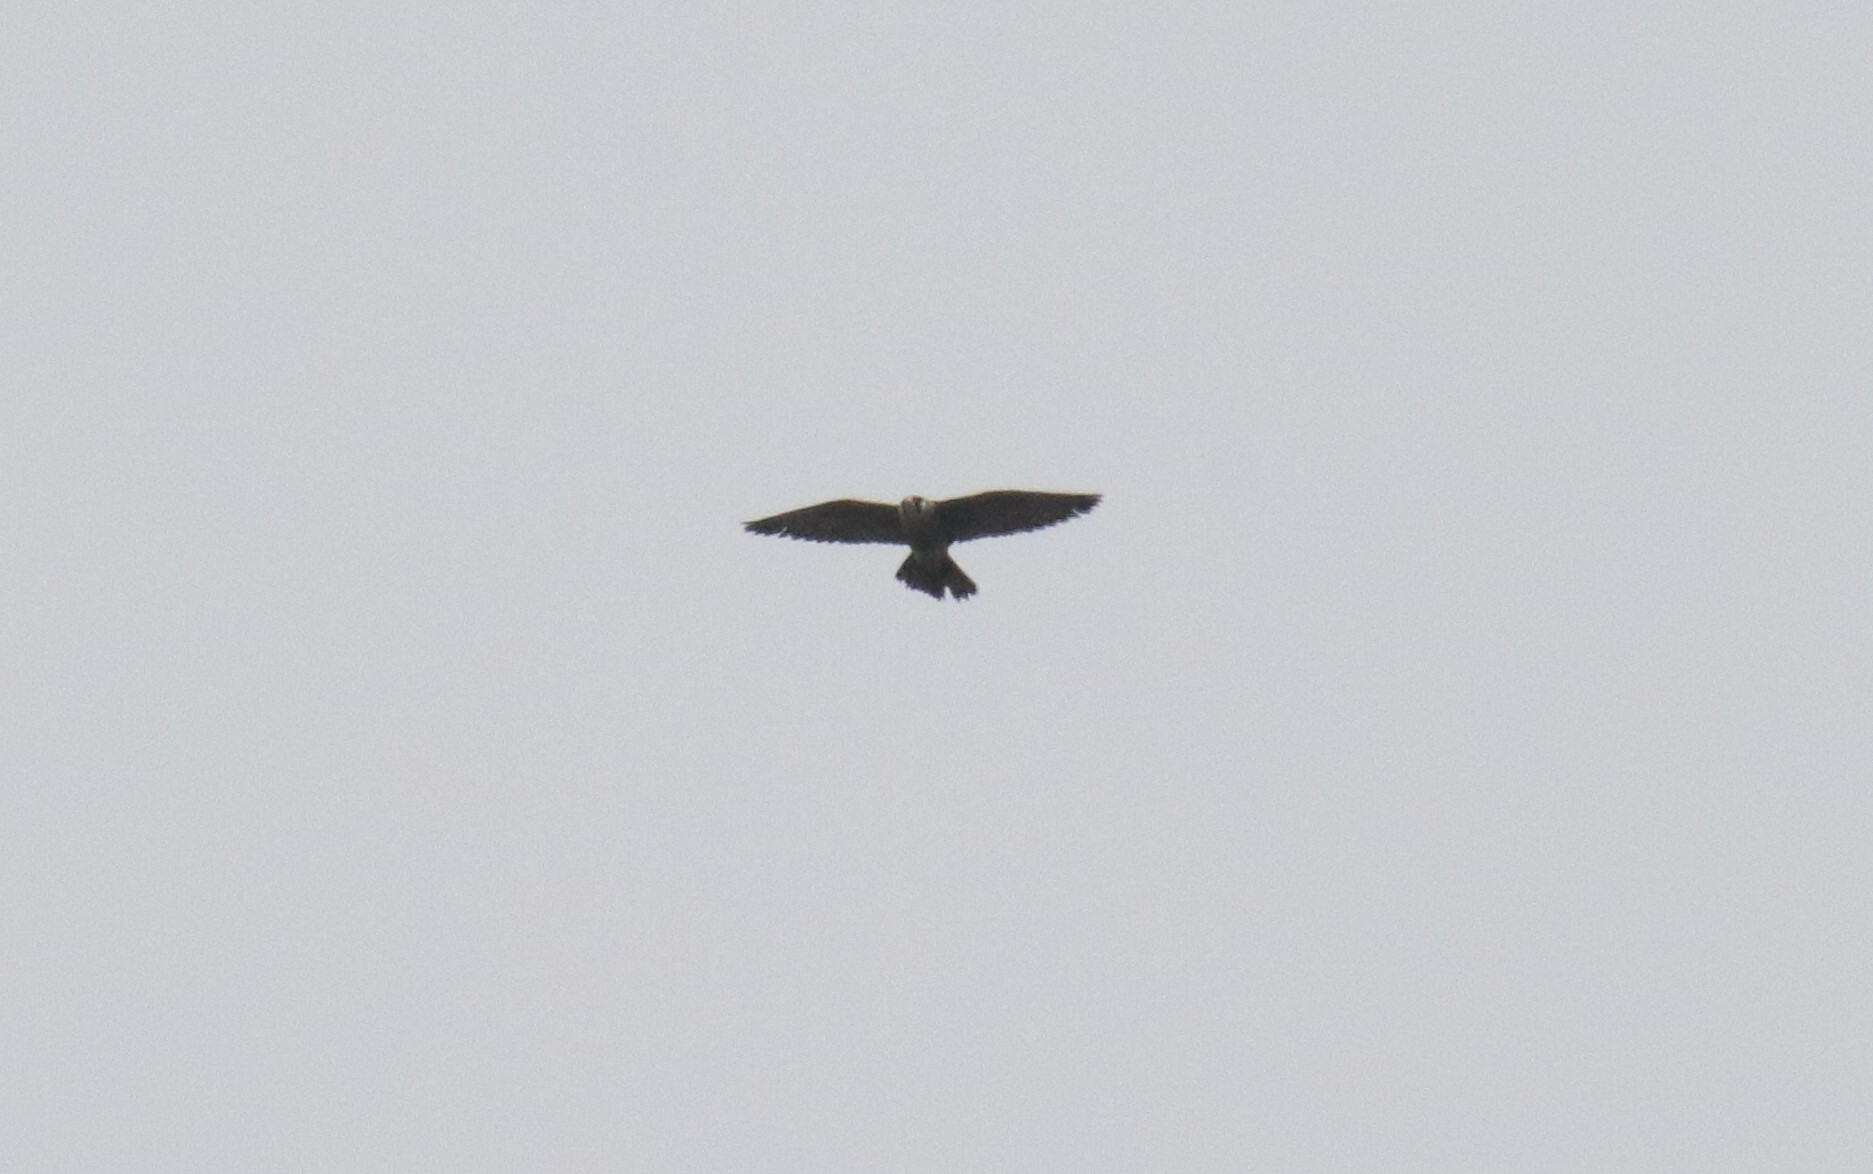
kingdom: Animalia
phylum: Chordata
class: Aves
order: Falconiformes
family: Falconidae
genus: Falco
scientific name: Falco peregrinus
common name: Peregrine falcon
